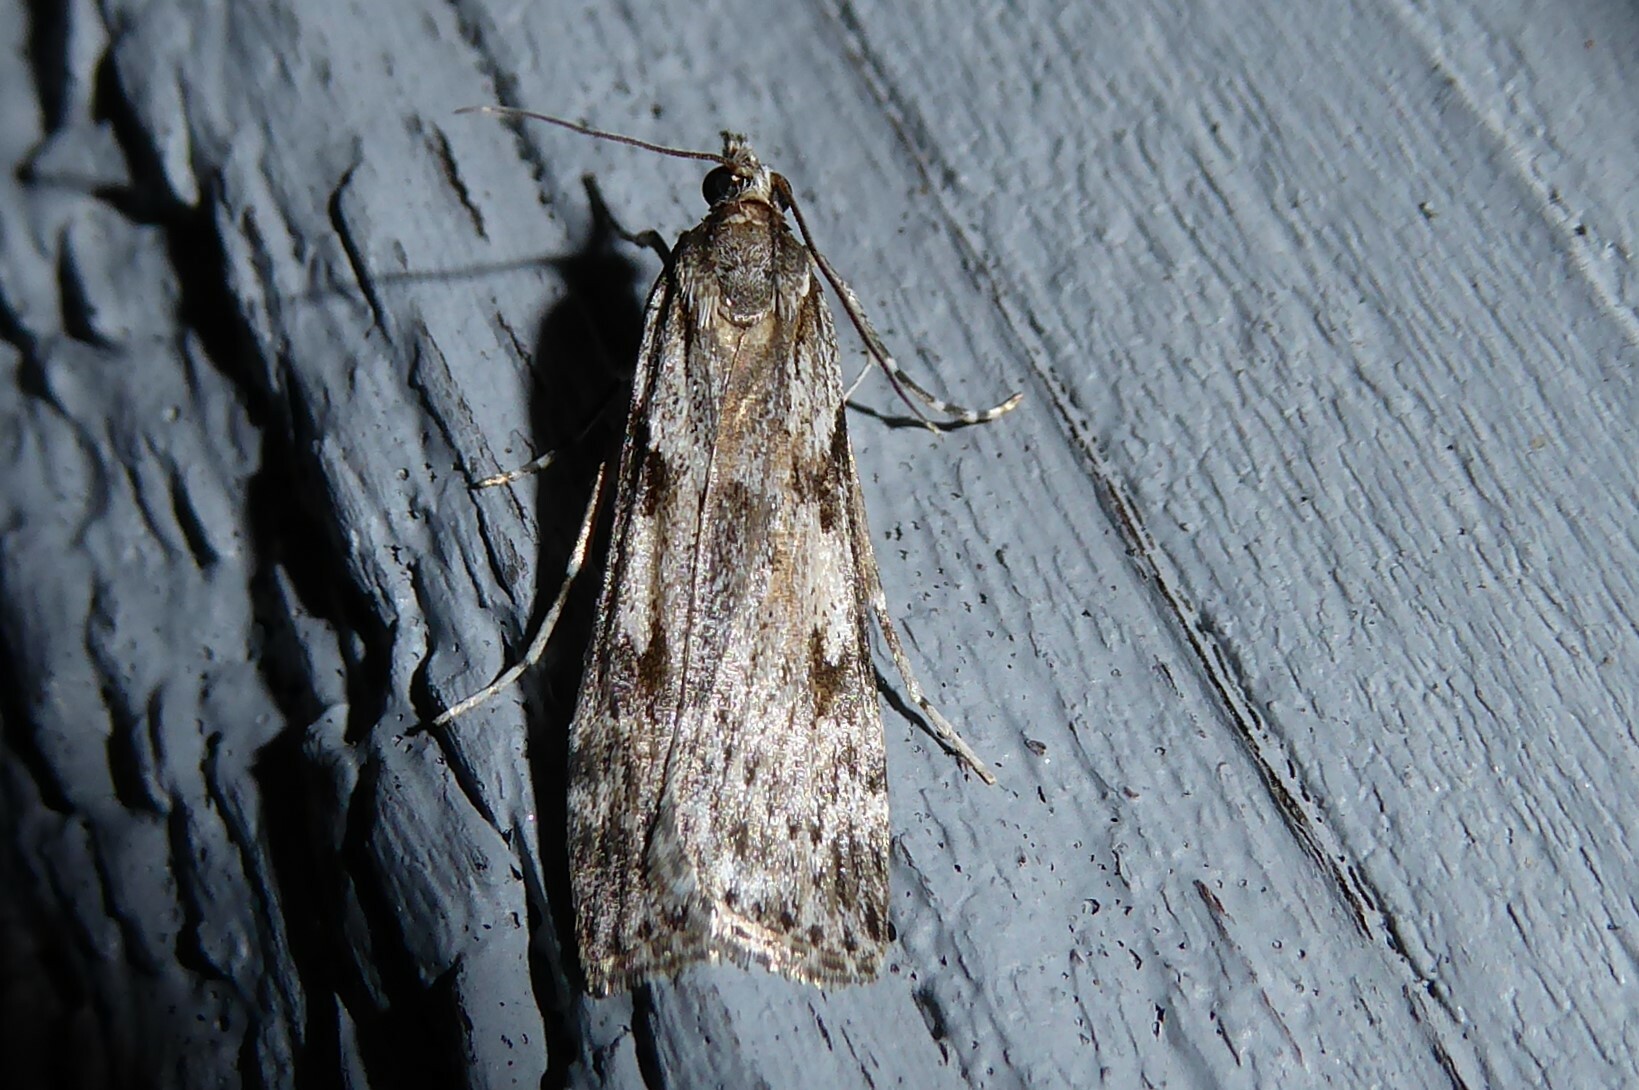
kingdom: Animalia
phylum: Arthropoda
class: Insecta
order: Lepidoptera
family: Crambidae
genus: Scoparia
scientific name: Scoparia halopis
